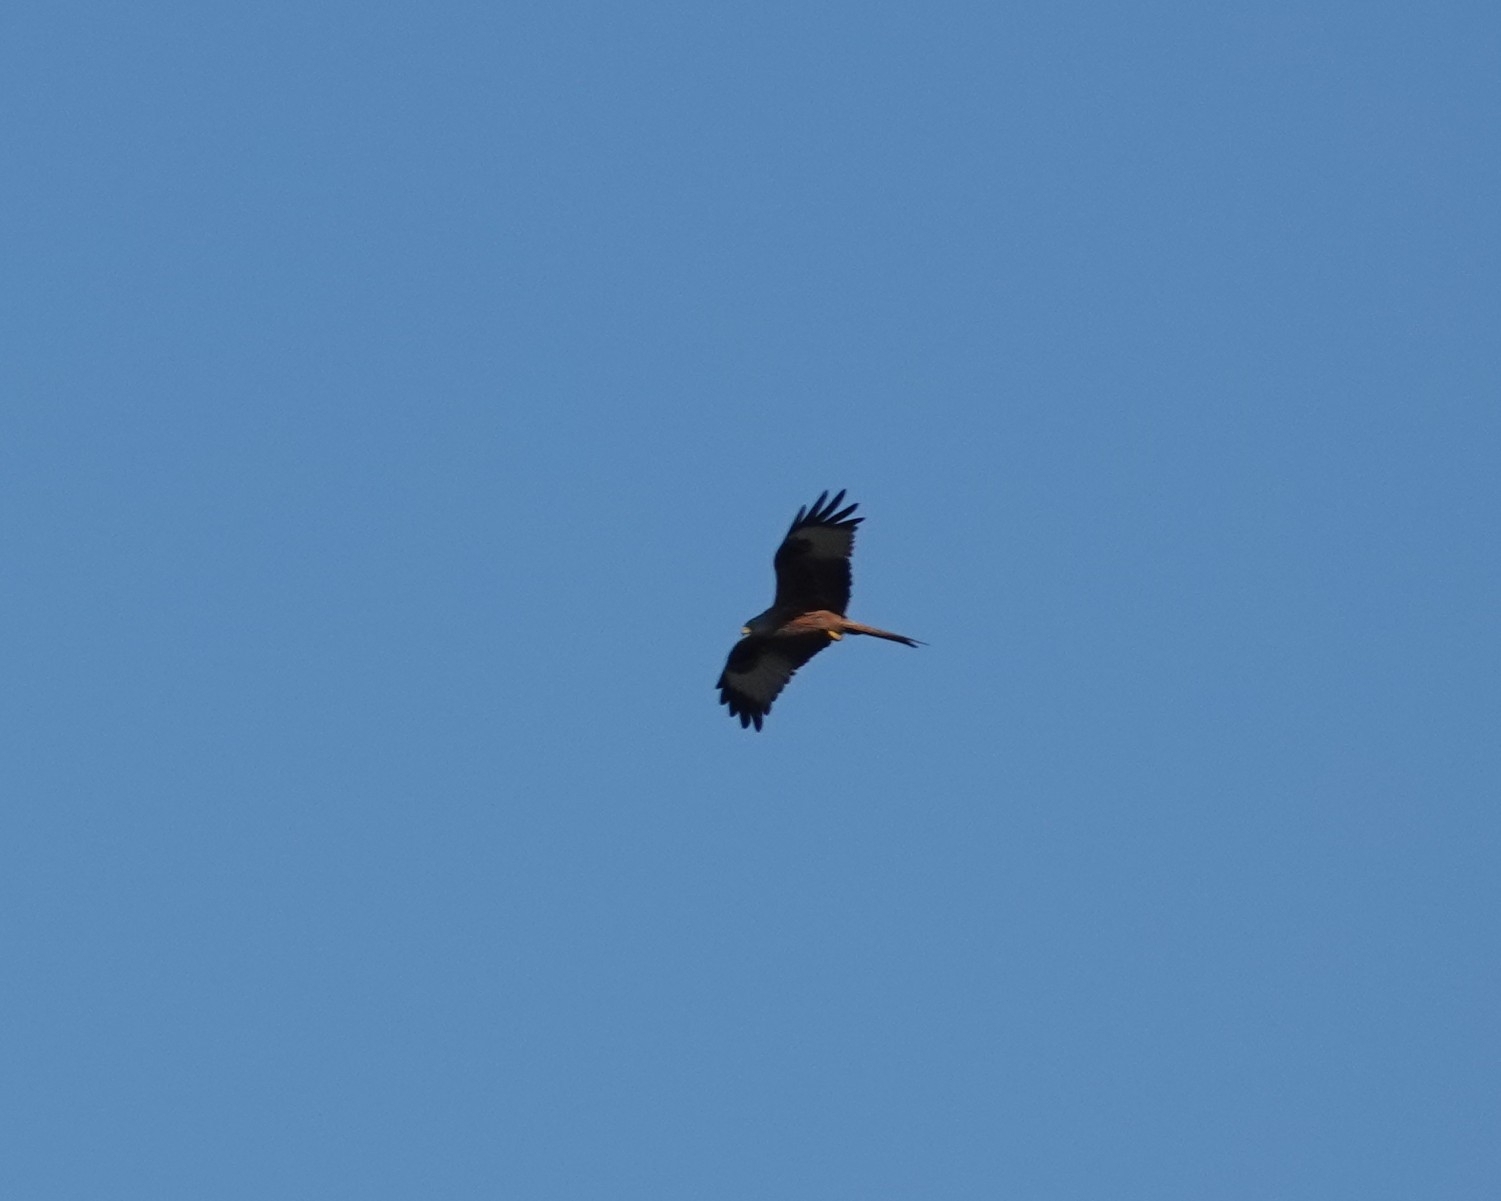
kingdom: Animalia
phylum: Chordata
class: Aves
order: Accipitriformes
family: Accipitridae
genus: Milvus
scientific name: Milvus milvus
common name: Red kite
